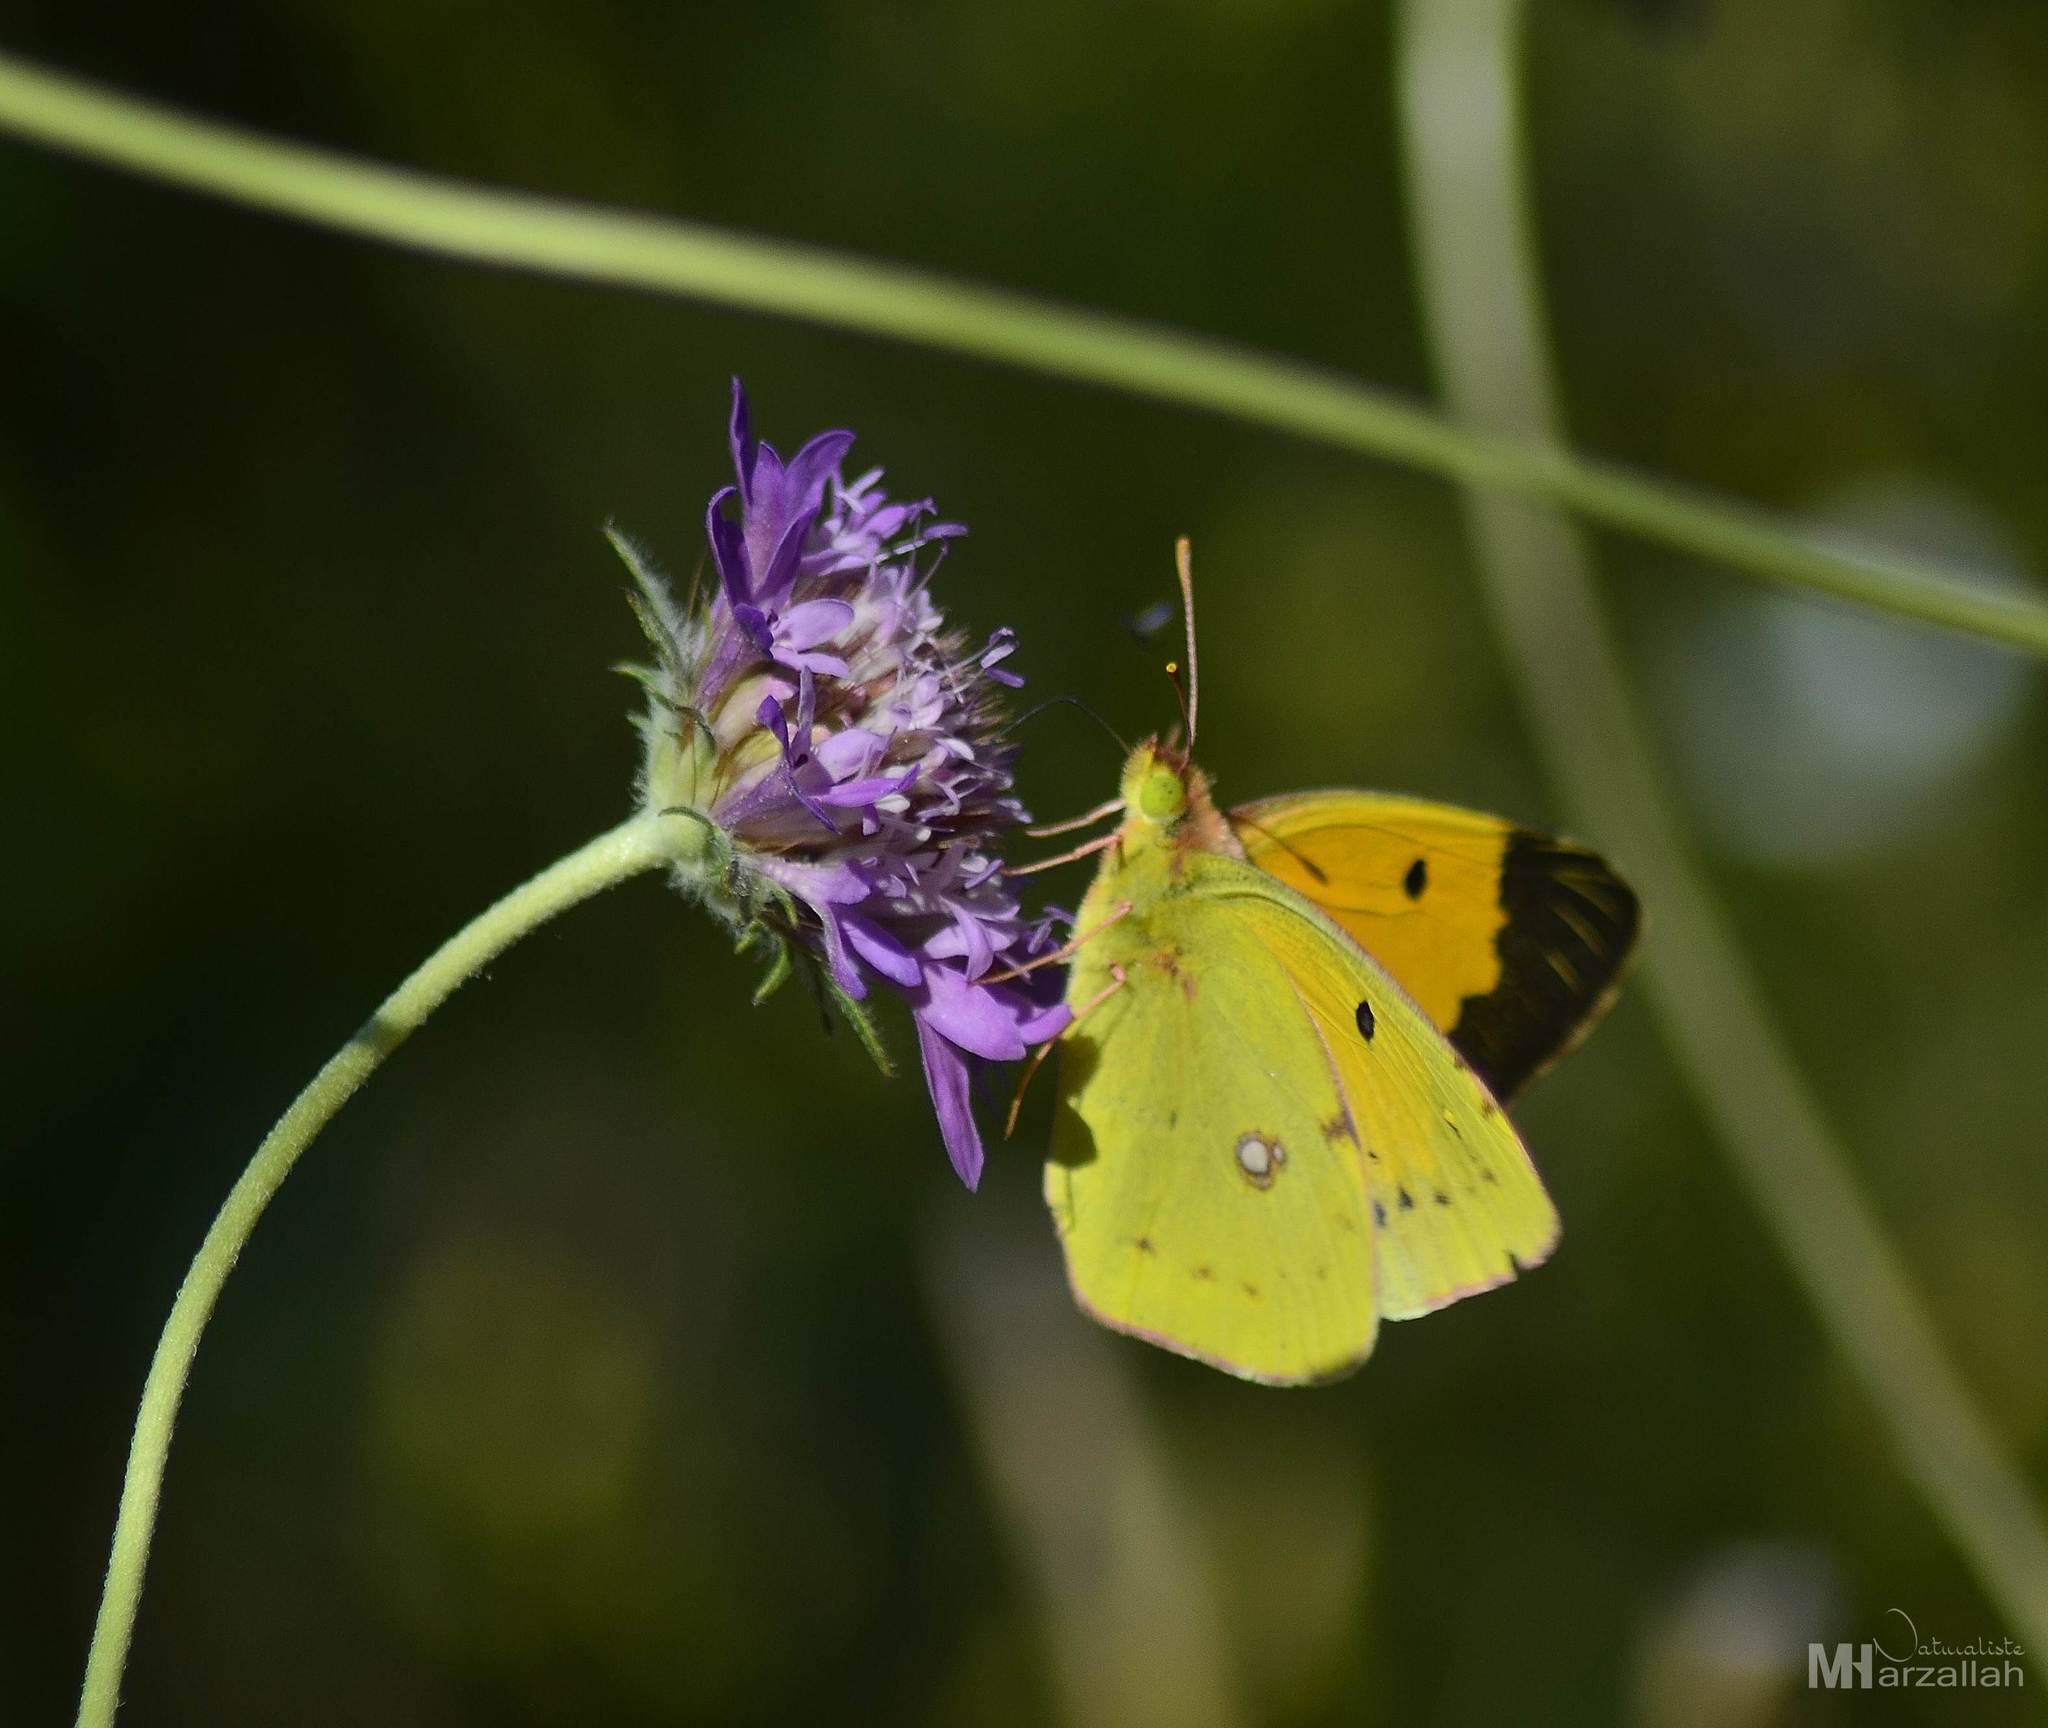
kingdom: Animalia
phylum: Arthropoda
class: Insecta
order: Lepidoptera
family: Pieridae
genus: Colias
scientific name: Colias croceus
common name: Clouded yellow
